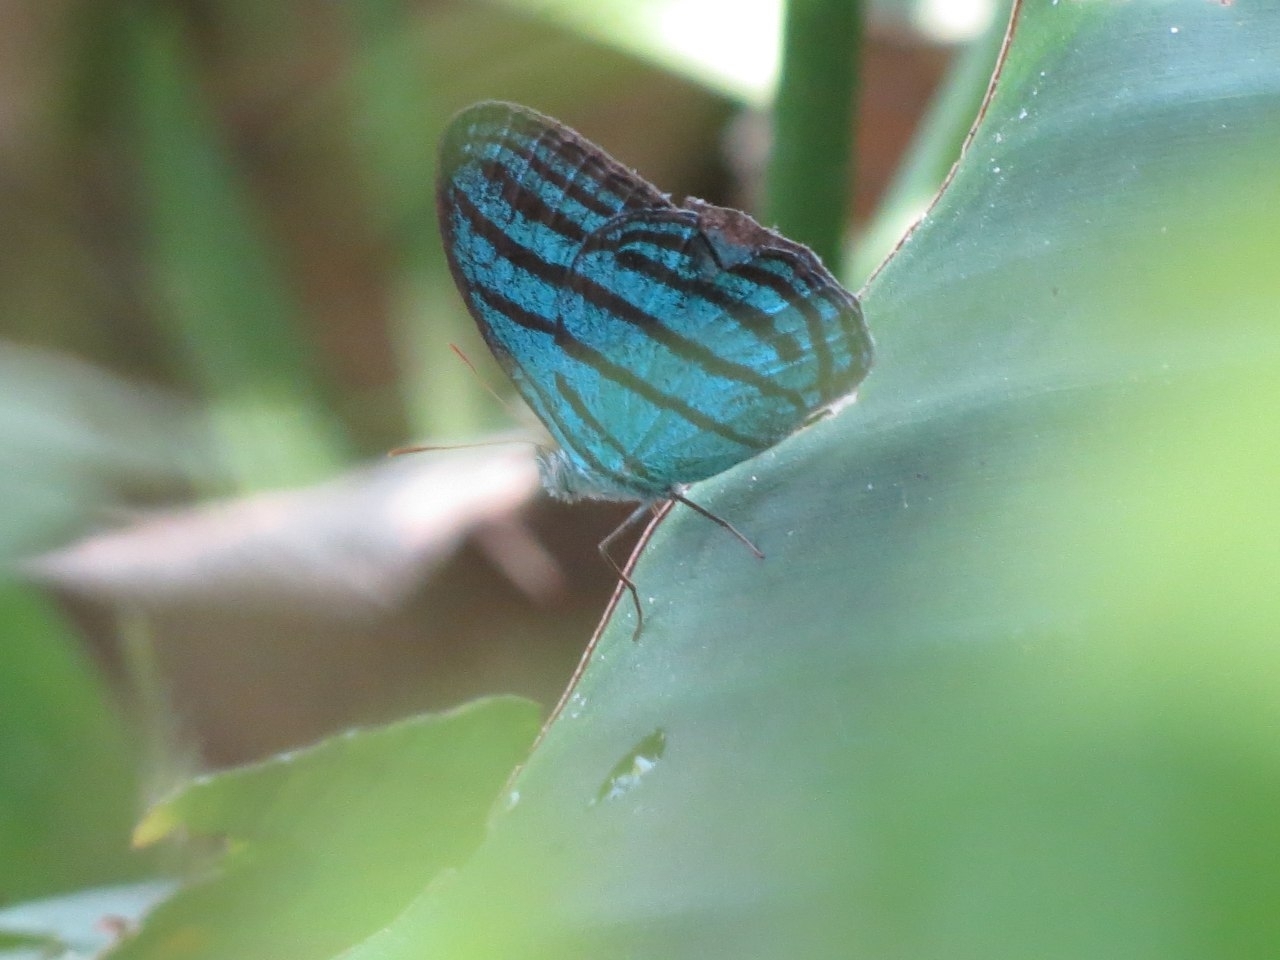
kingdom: Animalia
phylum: Arthropoda
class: Insecta
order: Lepidoptera
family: Nymphalidae
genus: Cepheuptychia
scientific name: Cepheuptychia cephus
